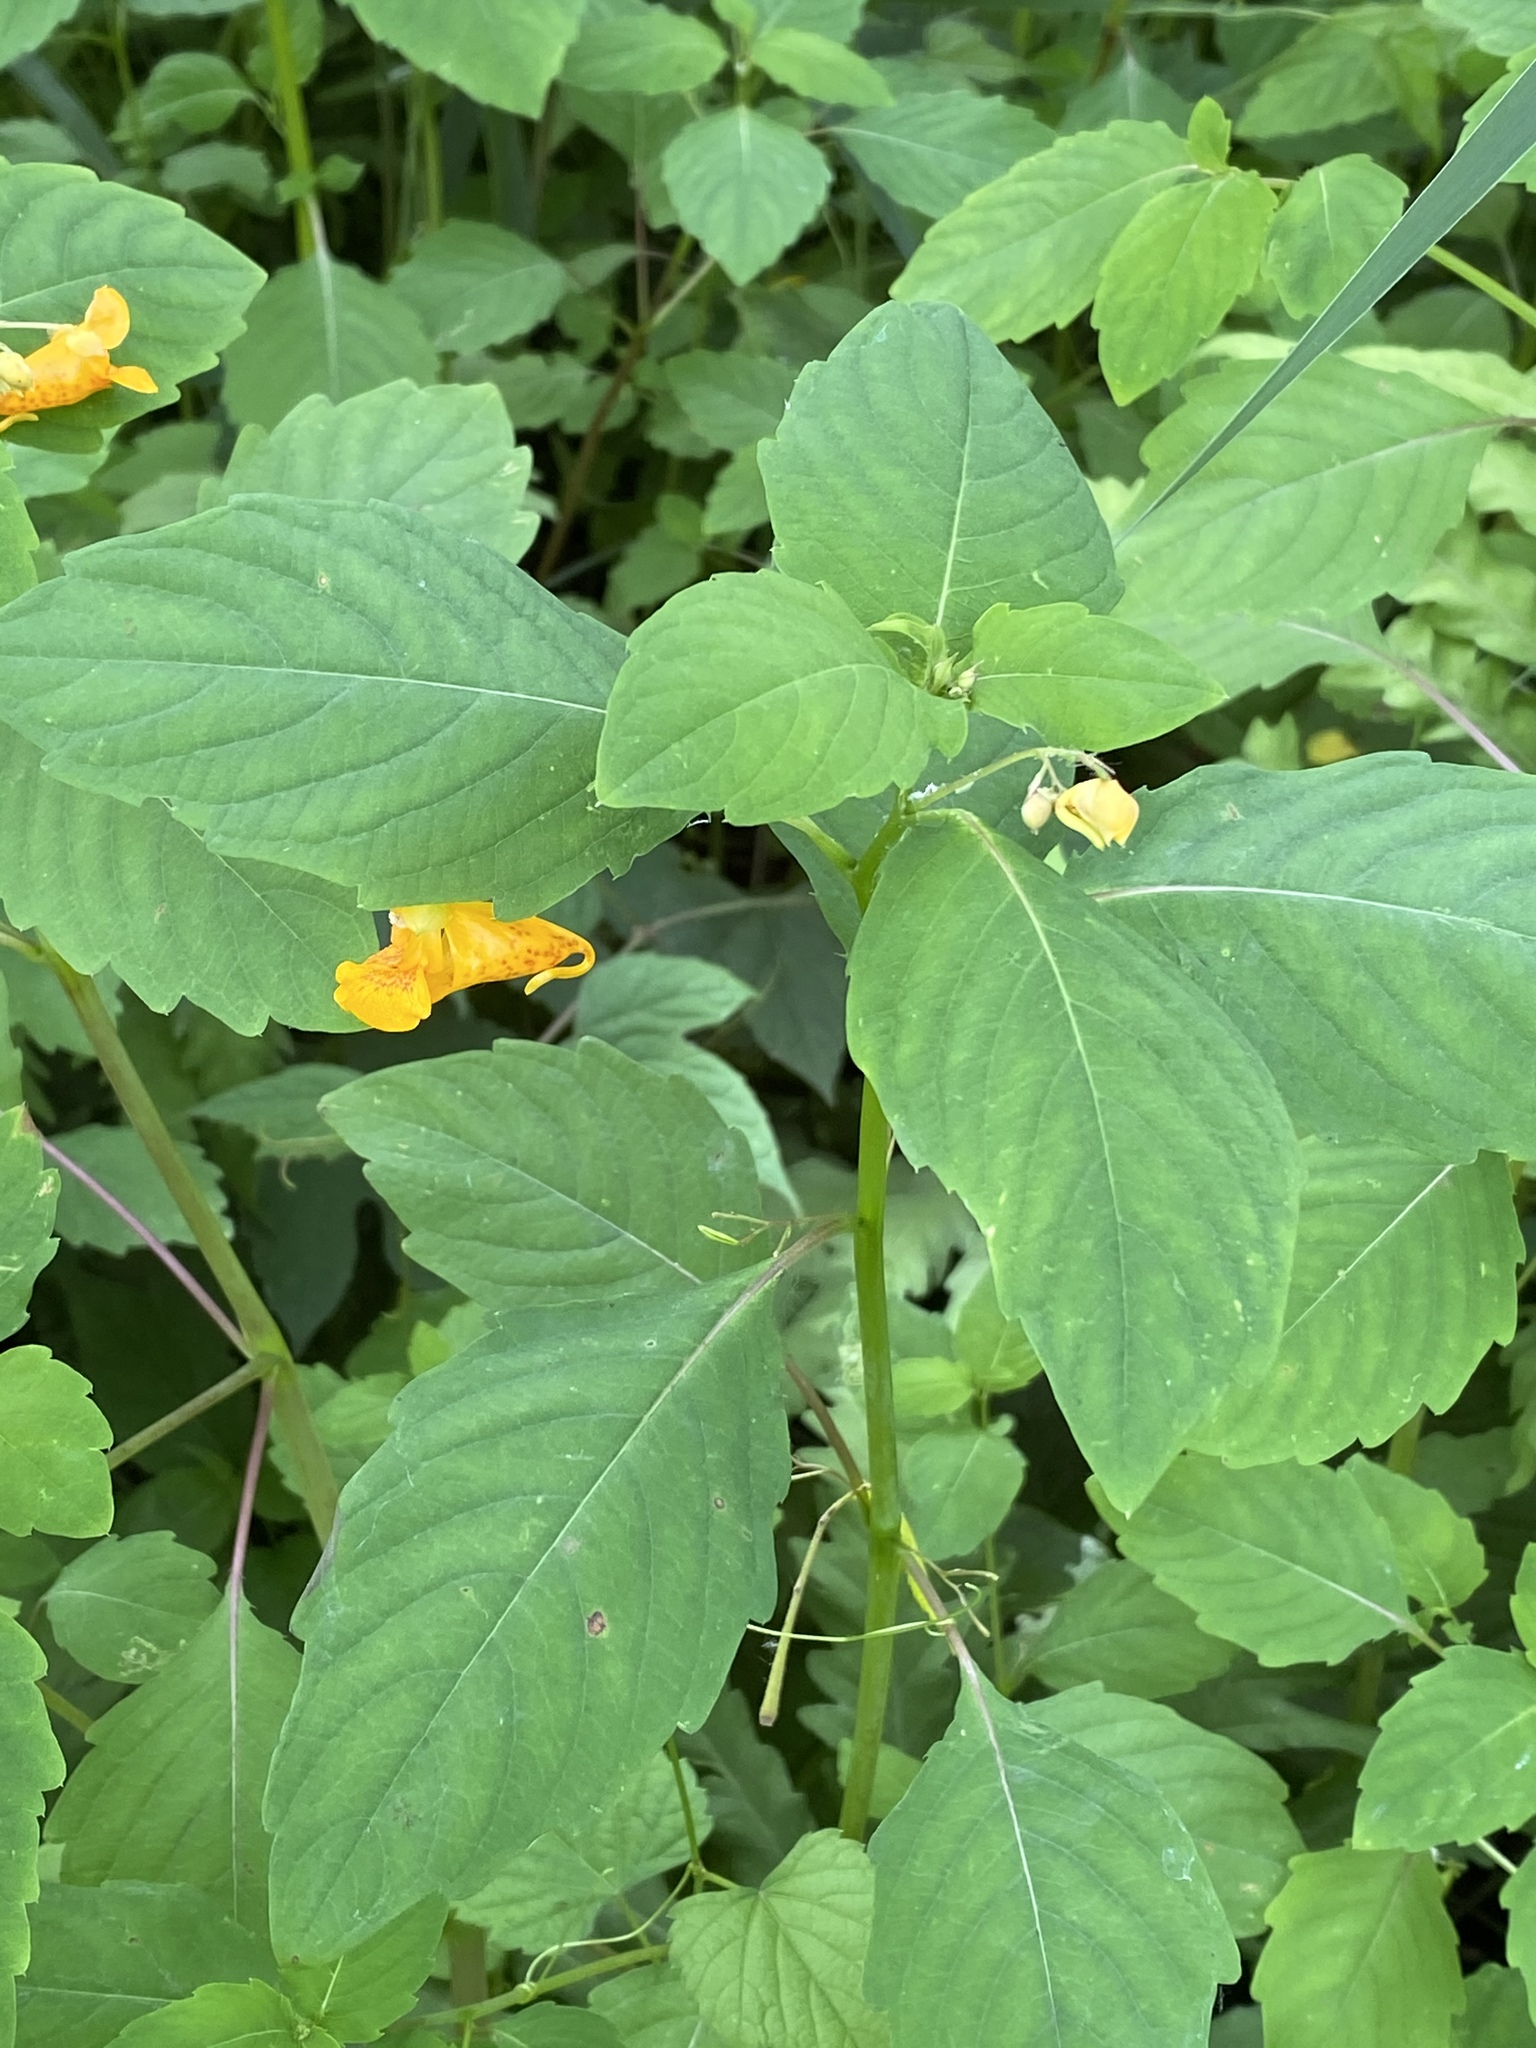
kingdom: Plantae
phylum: Tracheophyta
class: Magnoliopsida
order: Ericales
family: Balsaminaceae
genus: Impatiens
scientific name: Impatiens capensis
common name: Orange balsam
